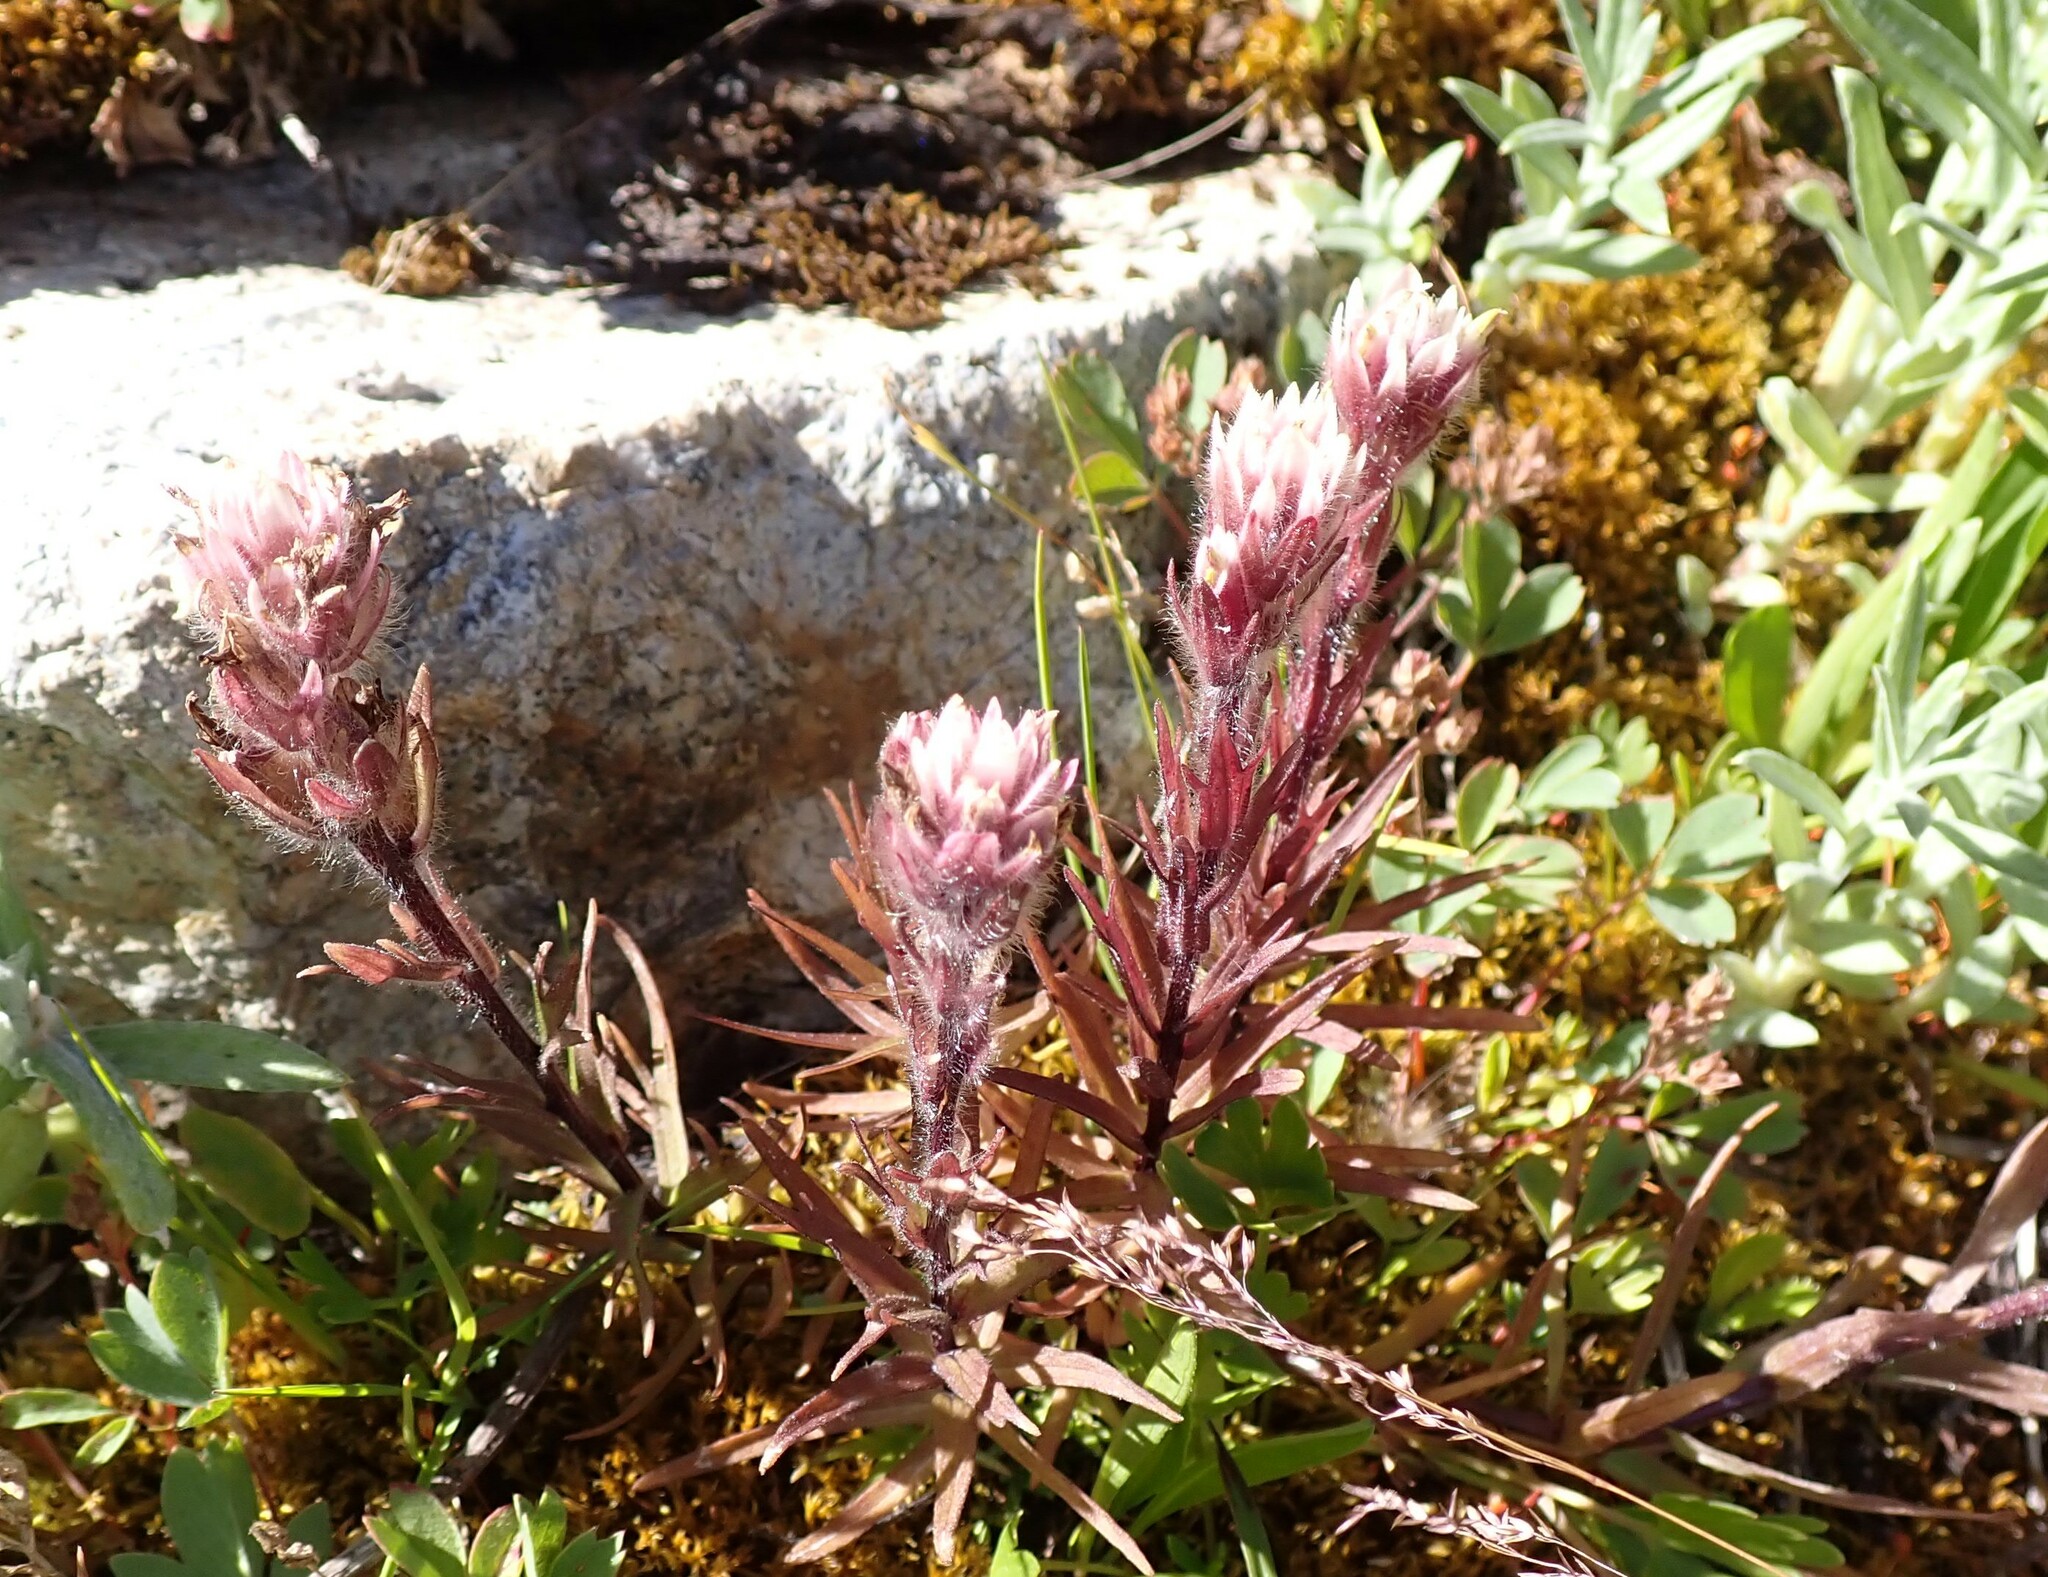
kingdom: Plantae
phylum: Tracheophyta
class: Magnoliopsida
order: Lamiales
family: Orobanchaceae
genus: Castilleja
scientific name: Castilleja parviflora
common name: Mountain paintbrush
